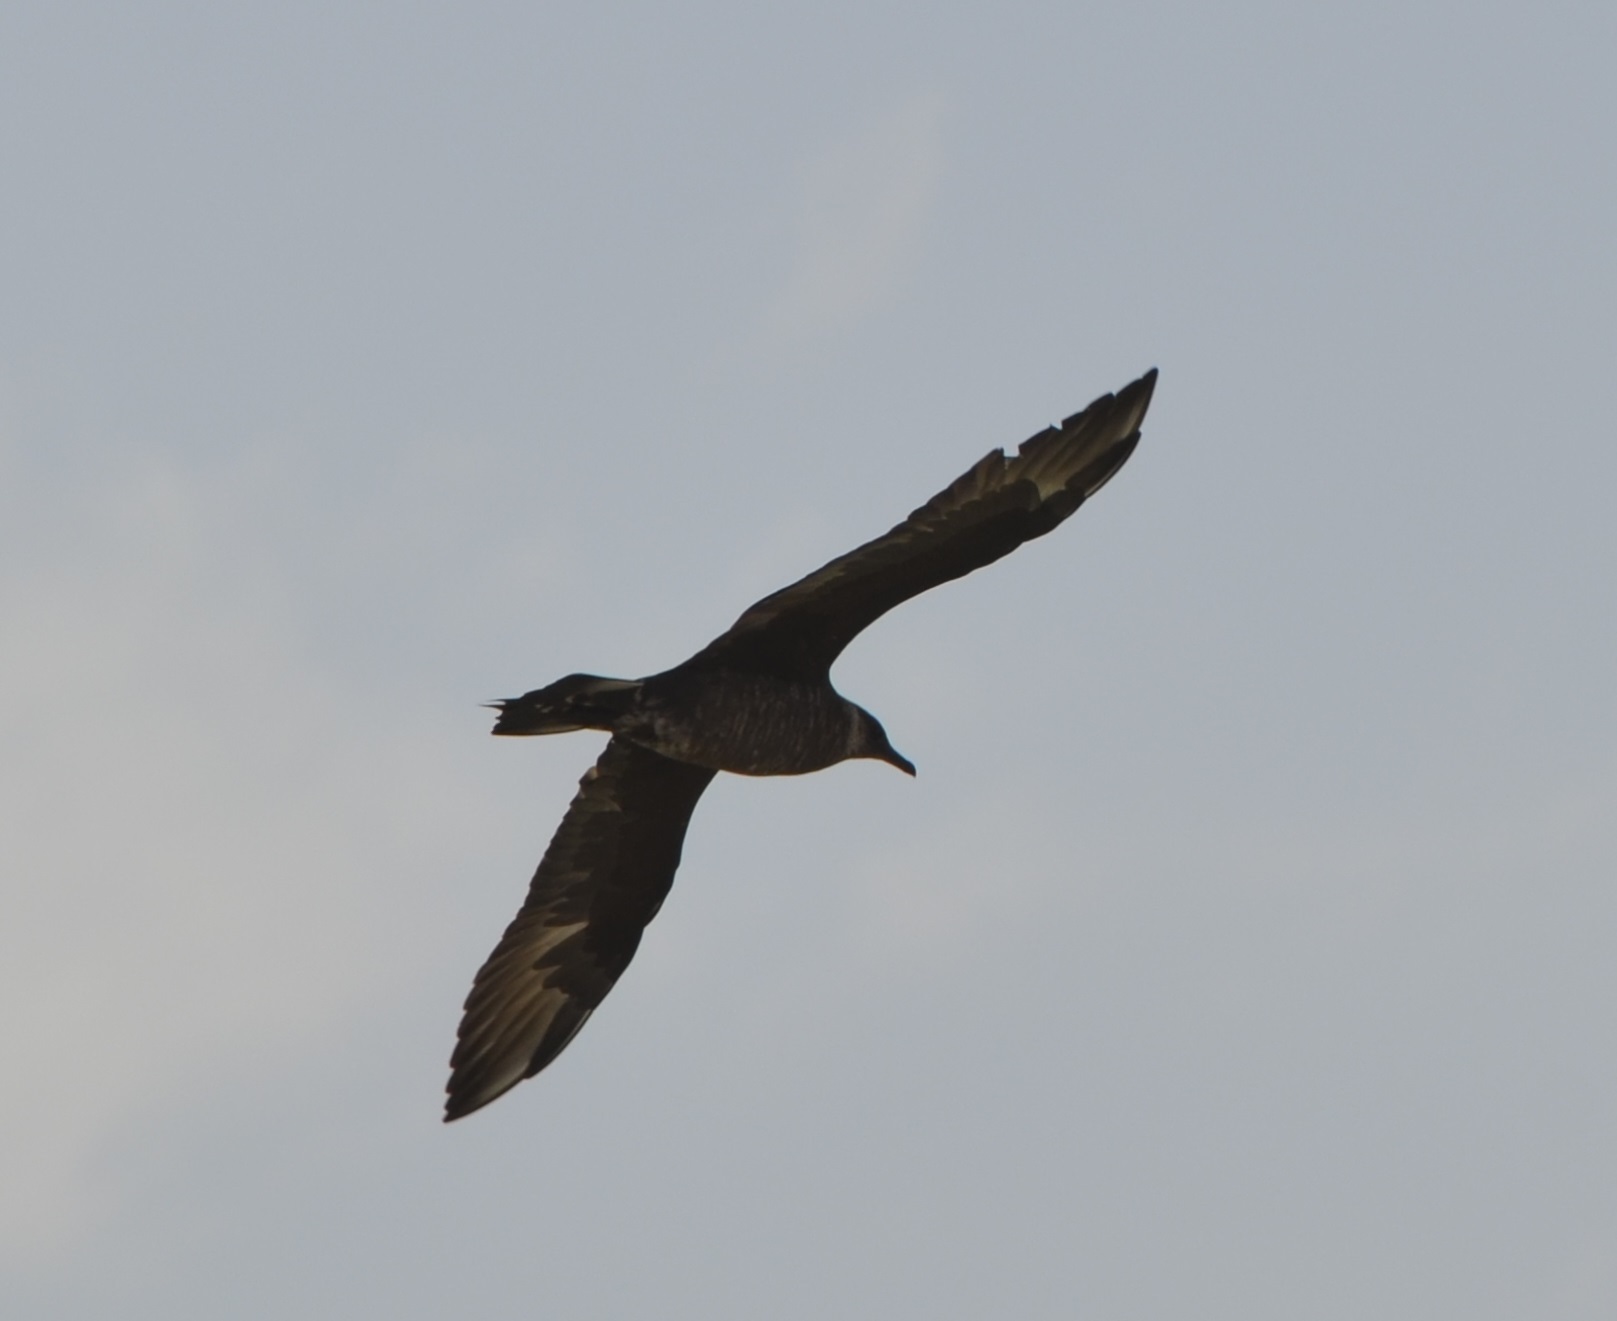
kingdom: Animalia
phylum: Chordata
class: Aves
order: Charadriiformes
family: Stercorariidae
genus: Stercorarius
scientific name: Stercorarius parasiticus
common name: Parasitic jaeger
